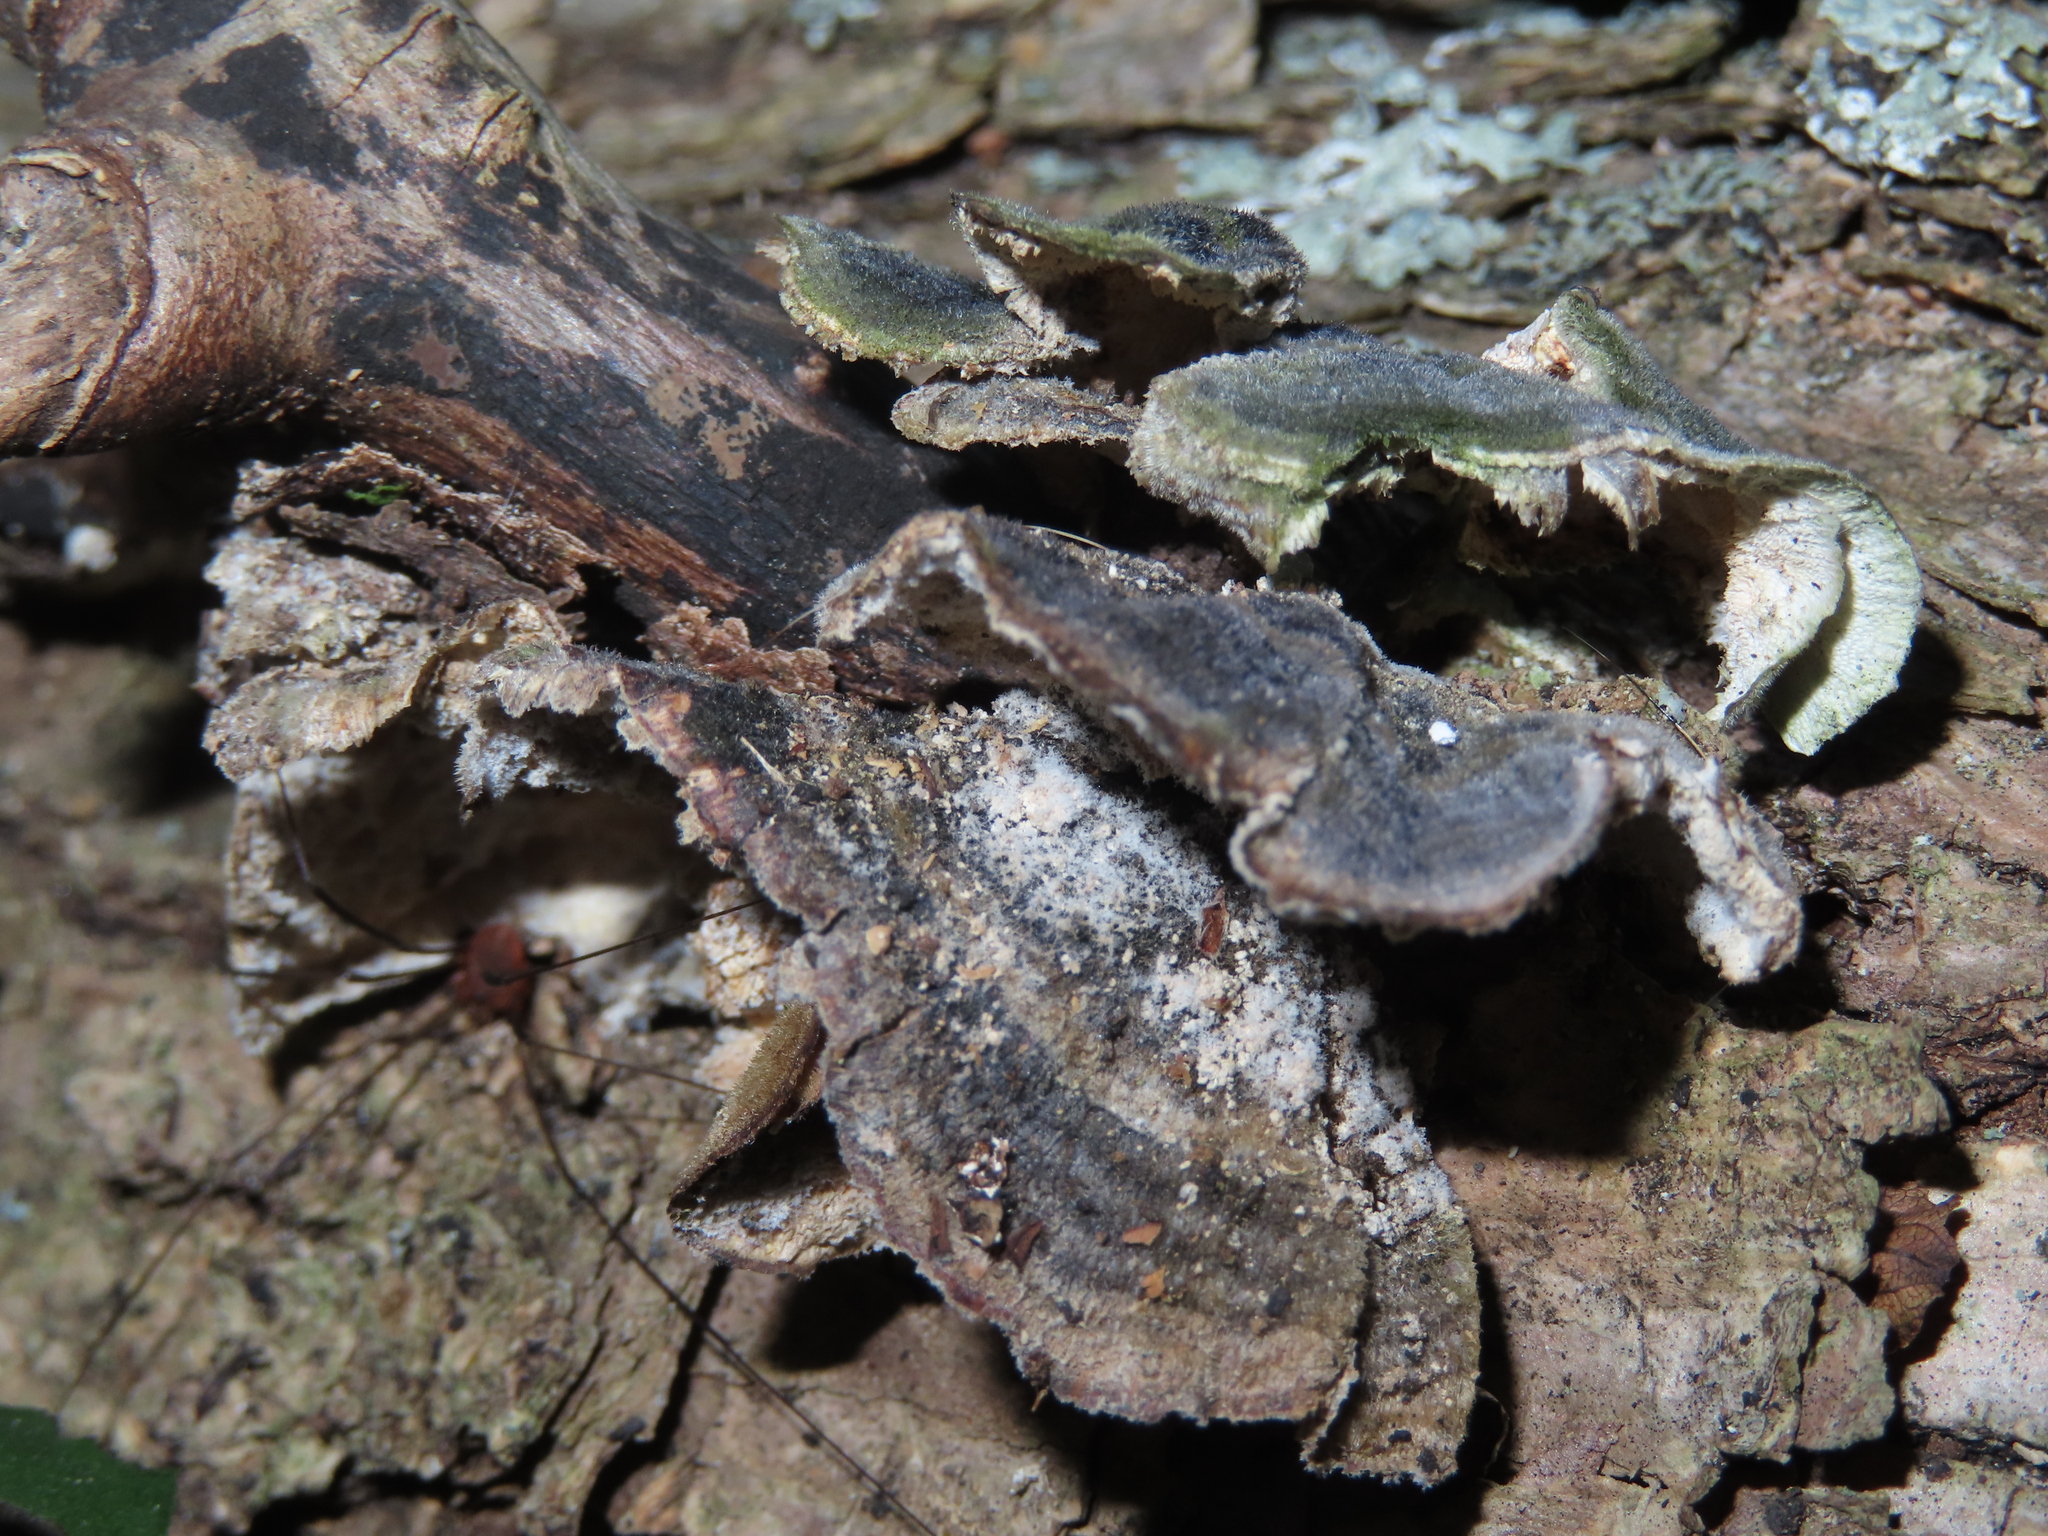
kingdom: Fungi
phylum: Basidiomycota
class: Agaricomycetes
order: Polyporales
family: Polyporaceae
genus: Trametes
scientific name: Trametes versicolor
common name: Turkeytail
